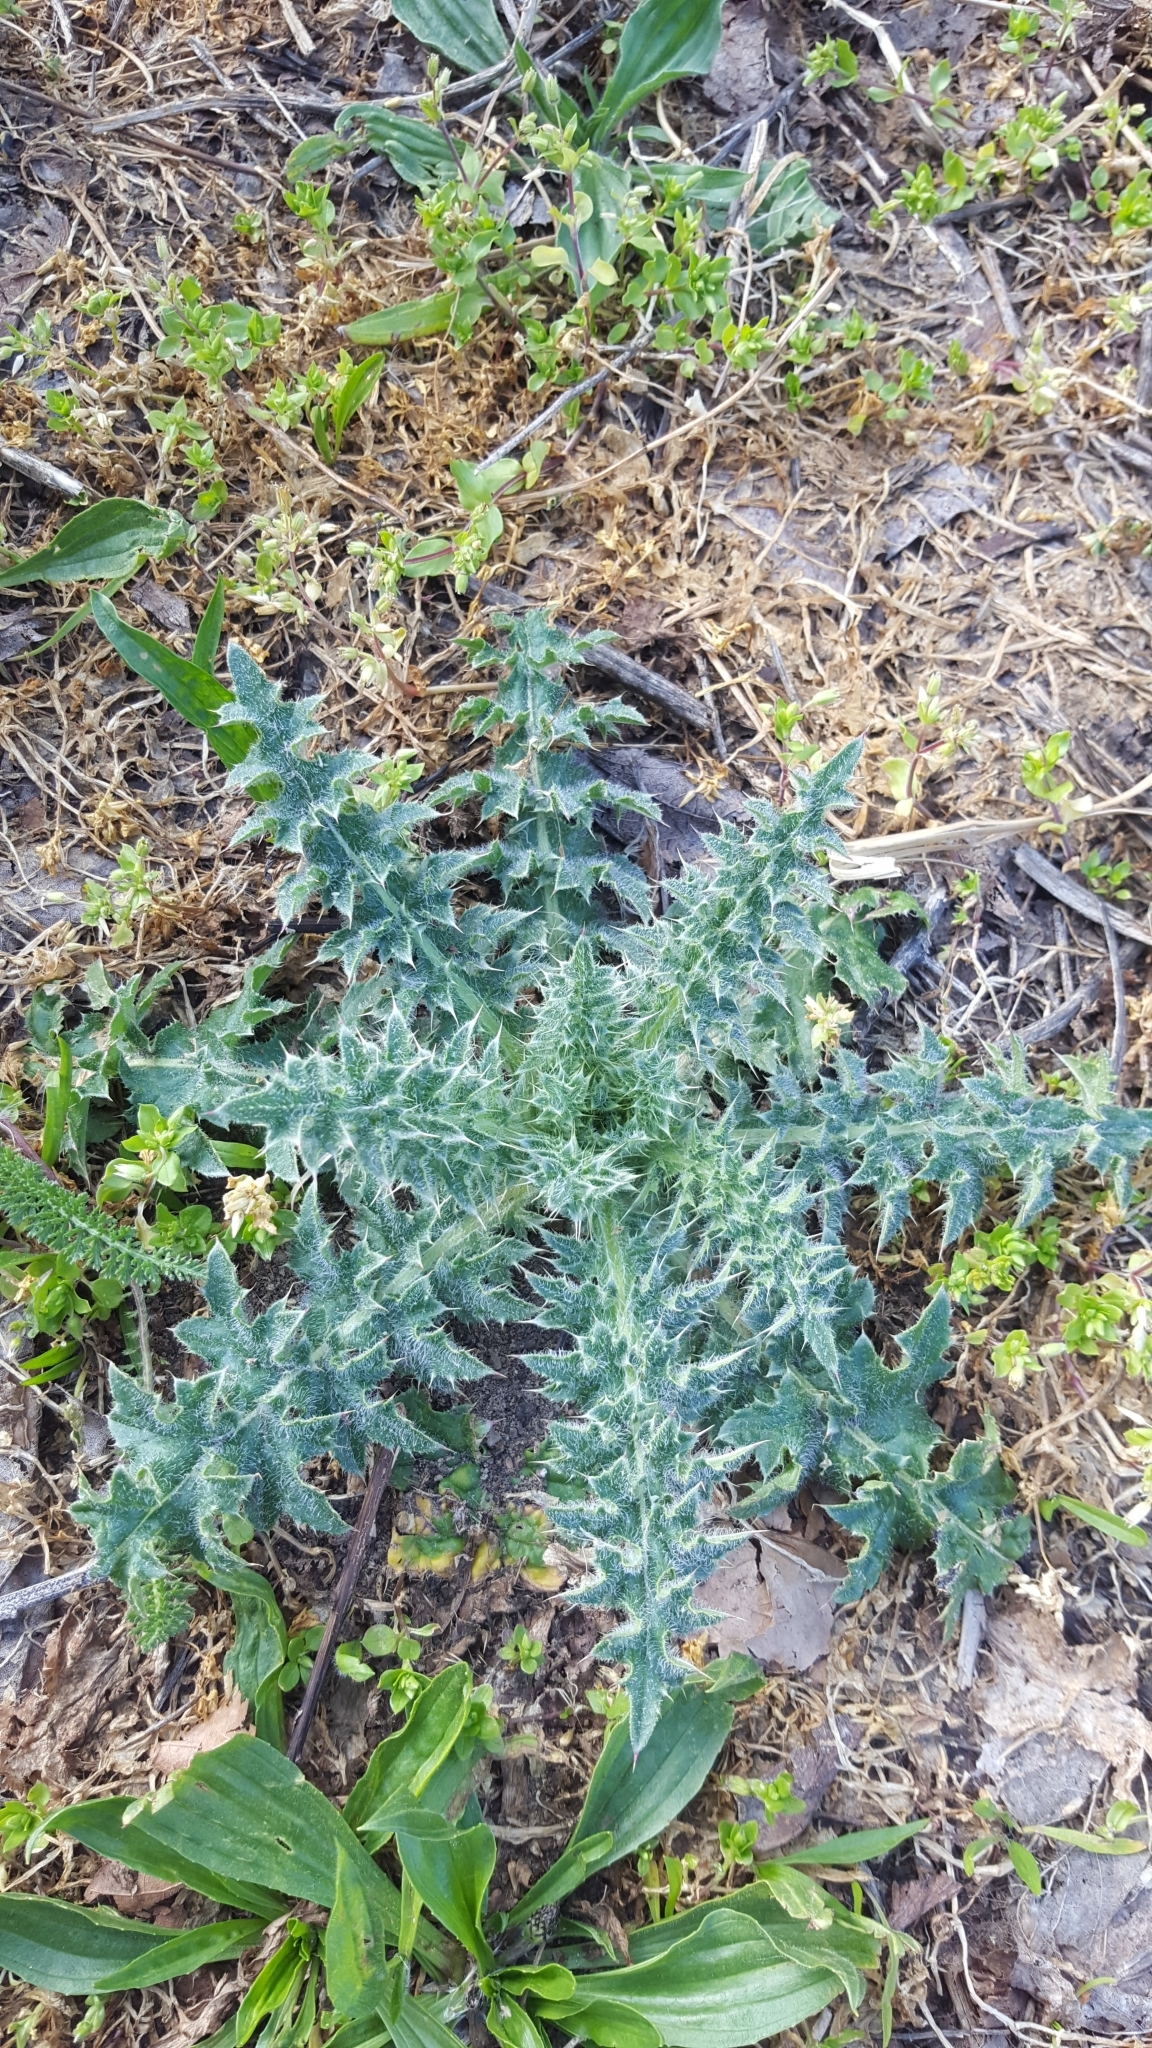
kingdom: Plantae
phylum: Tracheophyta
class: Magnoliopsida
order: Asterales
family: Asteraceae
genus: Cirsium
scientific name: Cirsium vulgare
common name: Bull thistle
